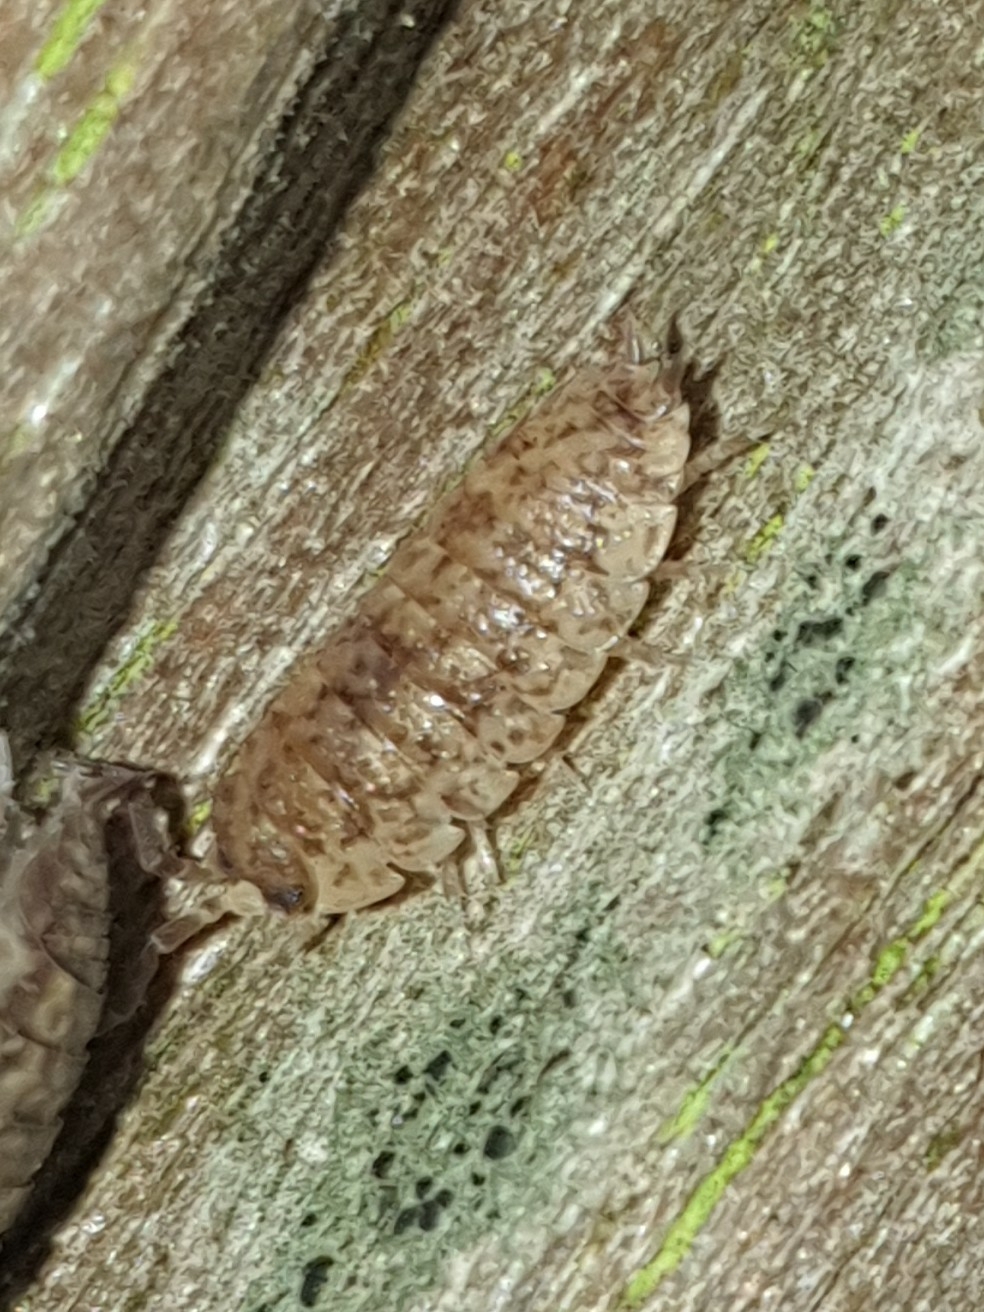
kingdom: Animalia
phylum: Arthropoda
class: Malacostraca
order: Isopoda
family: Porcellionidae
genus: Porcellio
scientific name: Porcellio scaber
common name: Common rough woodlouse
